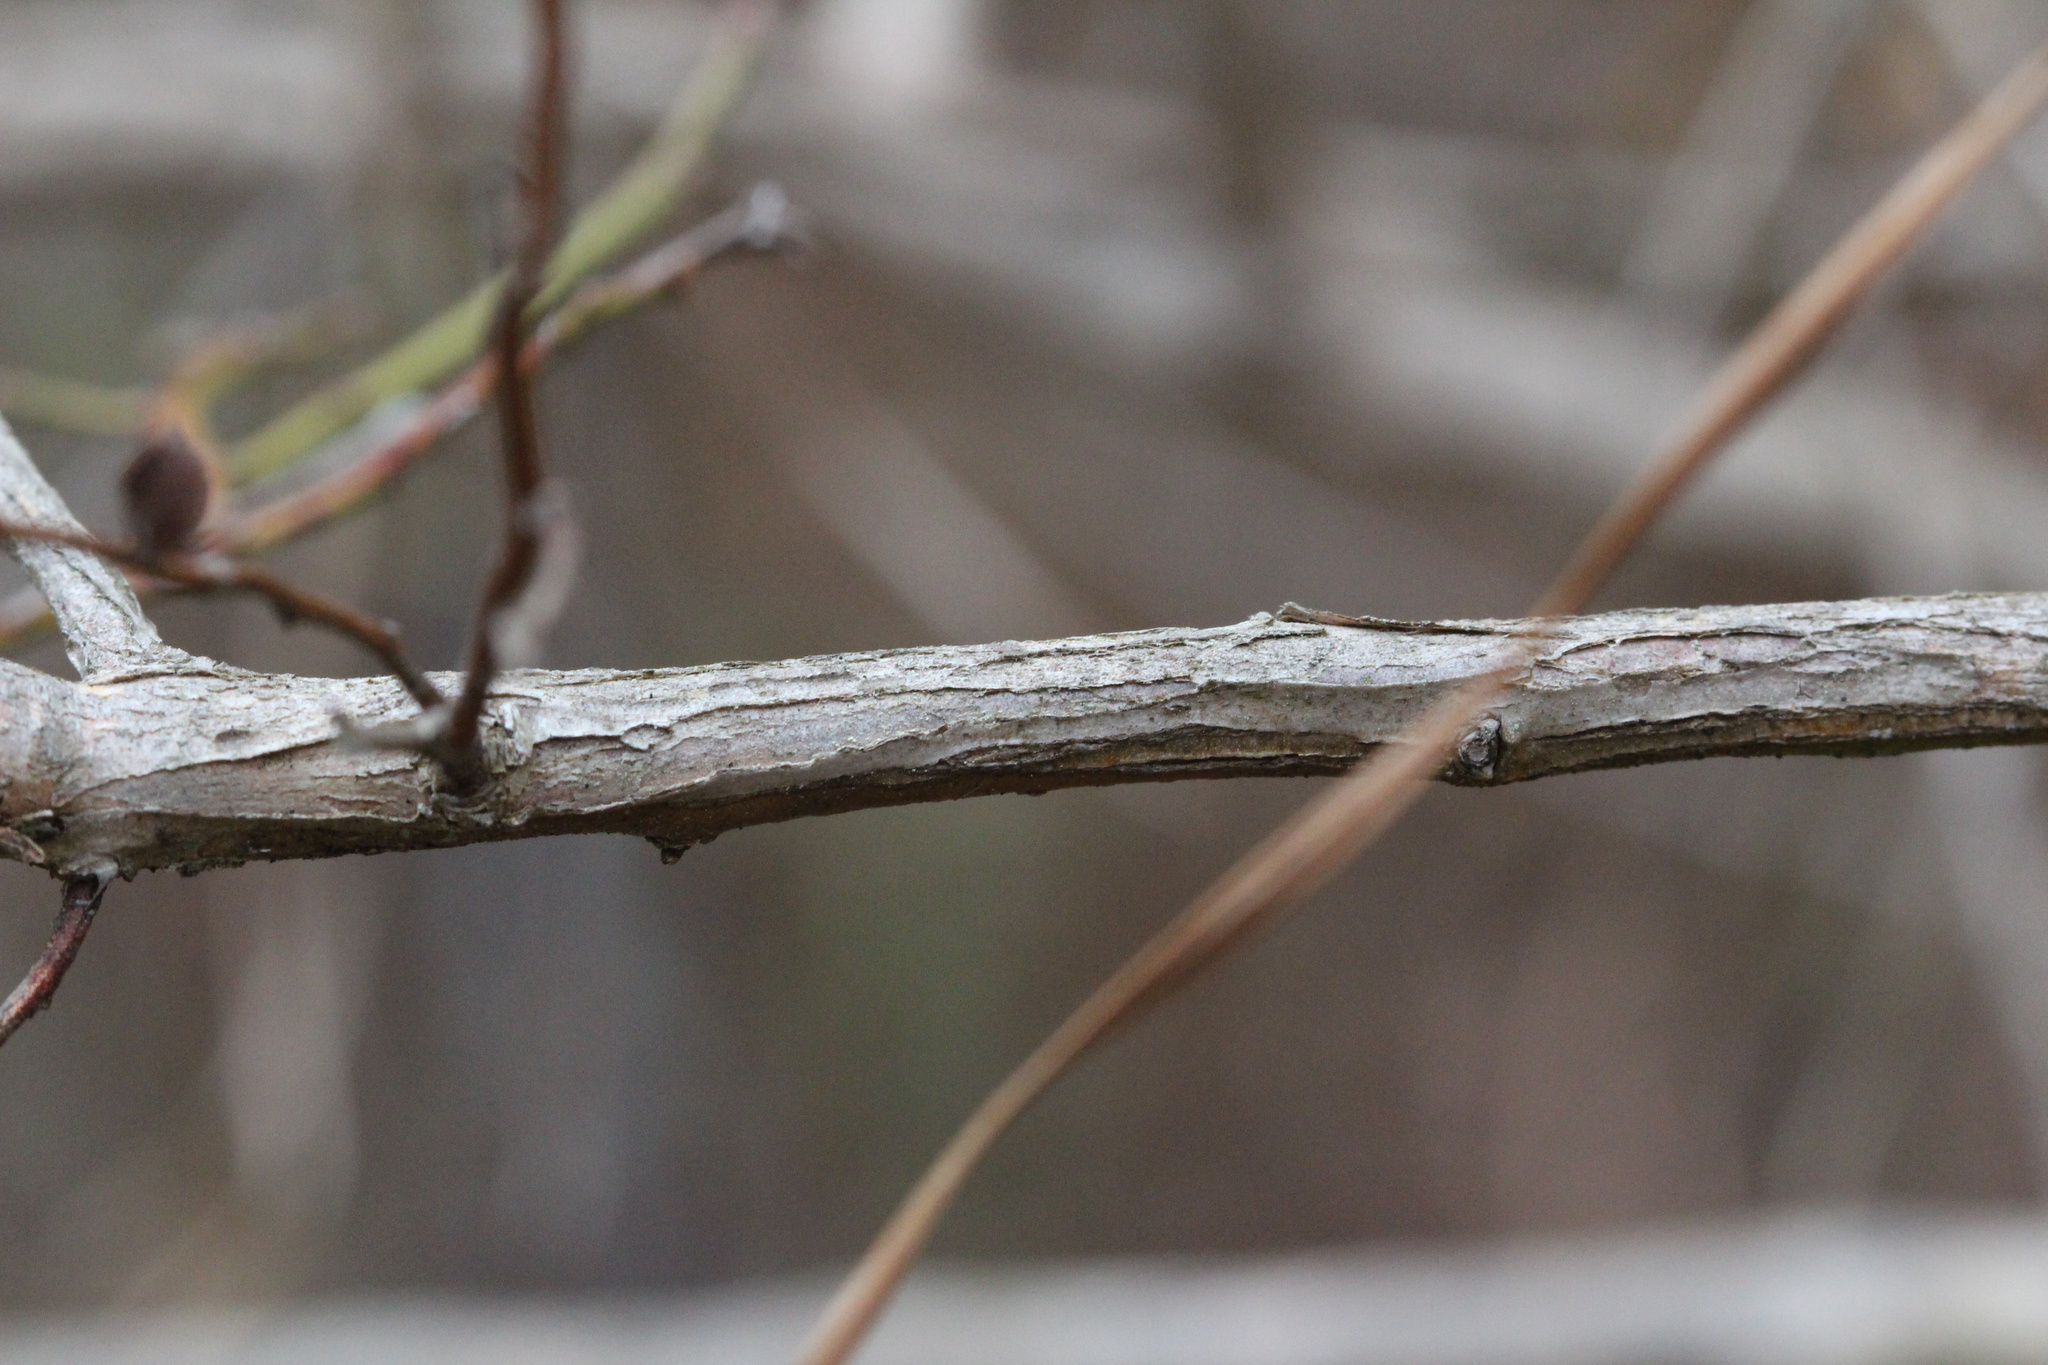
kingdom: Plantae
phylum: Tracheophyta
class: Magnoliopsida
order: Ericales
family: Ericaceae
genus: Vaccinium
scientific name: Vaccinium corymbosum
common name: Blueberry
